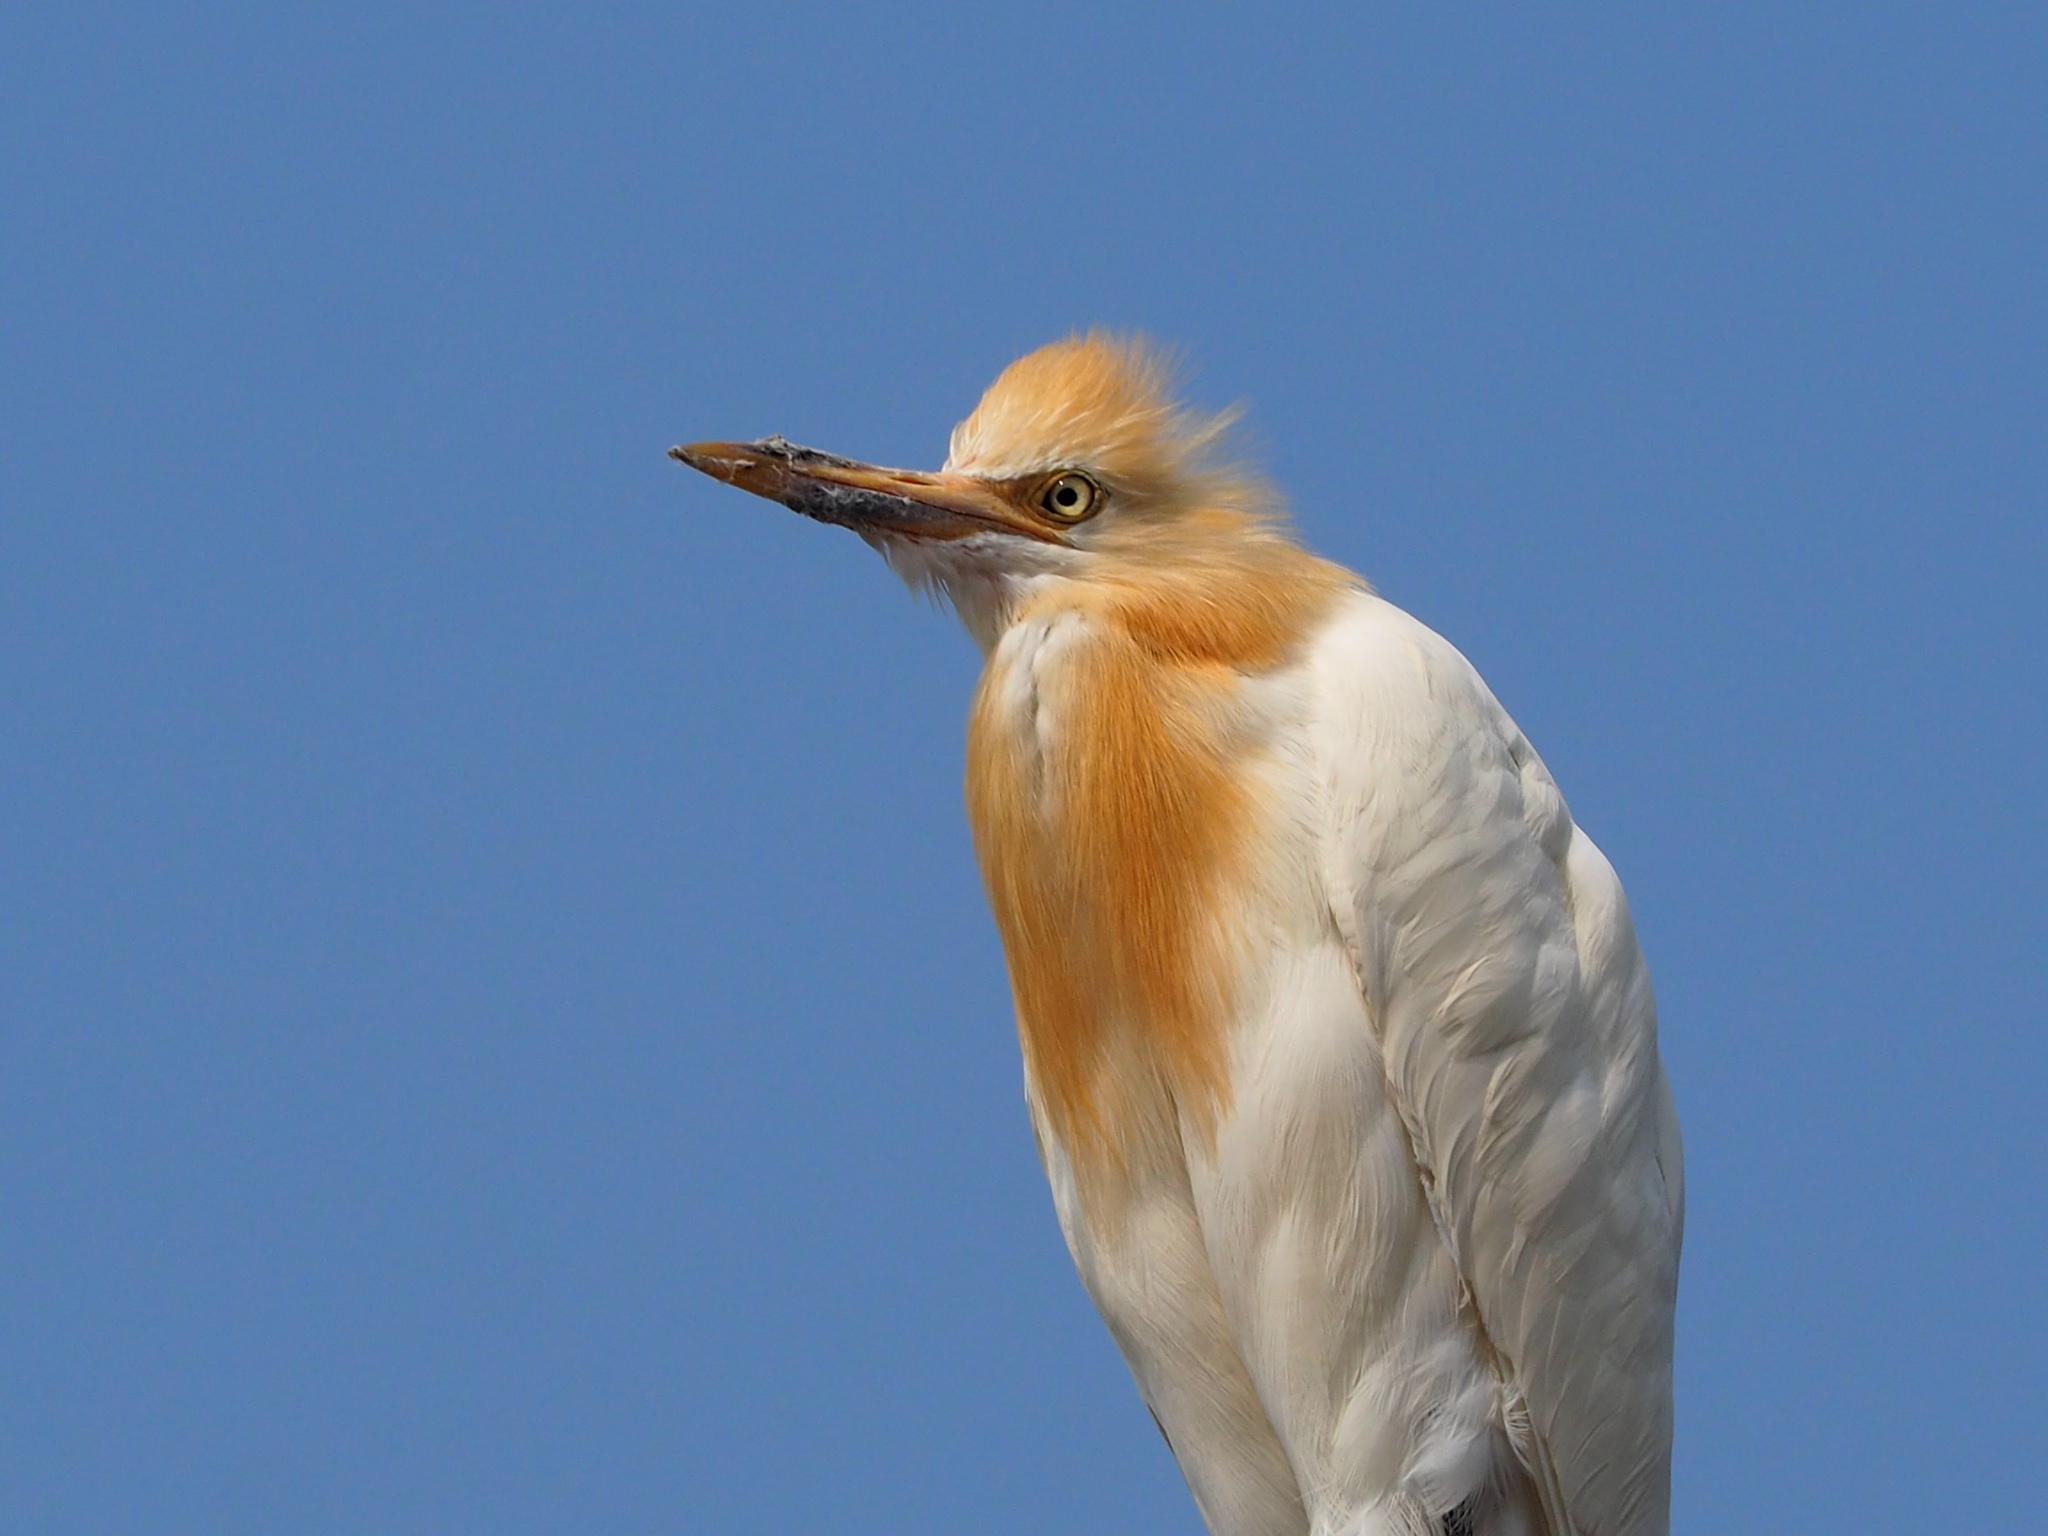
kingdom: Animalia
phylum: Chordata
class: Aves
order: Pelecaniformes
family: Ardeidae
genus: Bubulcus
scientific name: Bubulcus coromandus
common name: Eastern cattle egret
